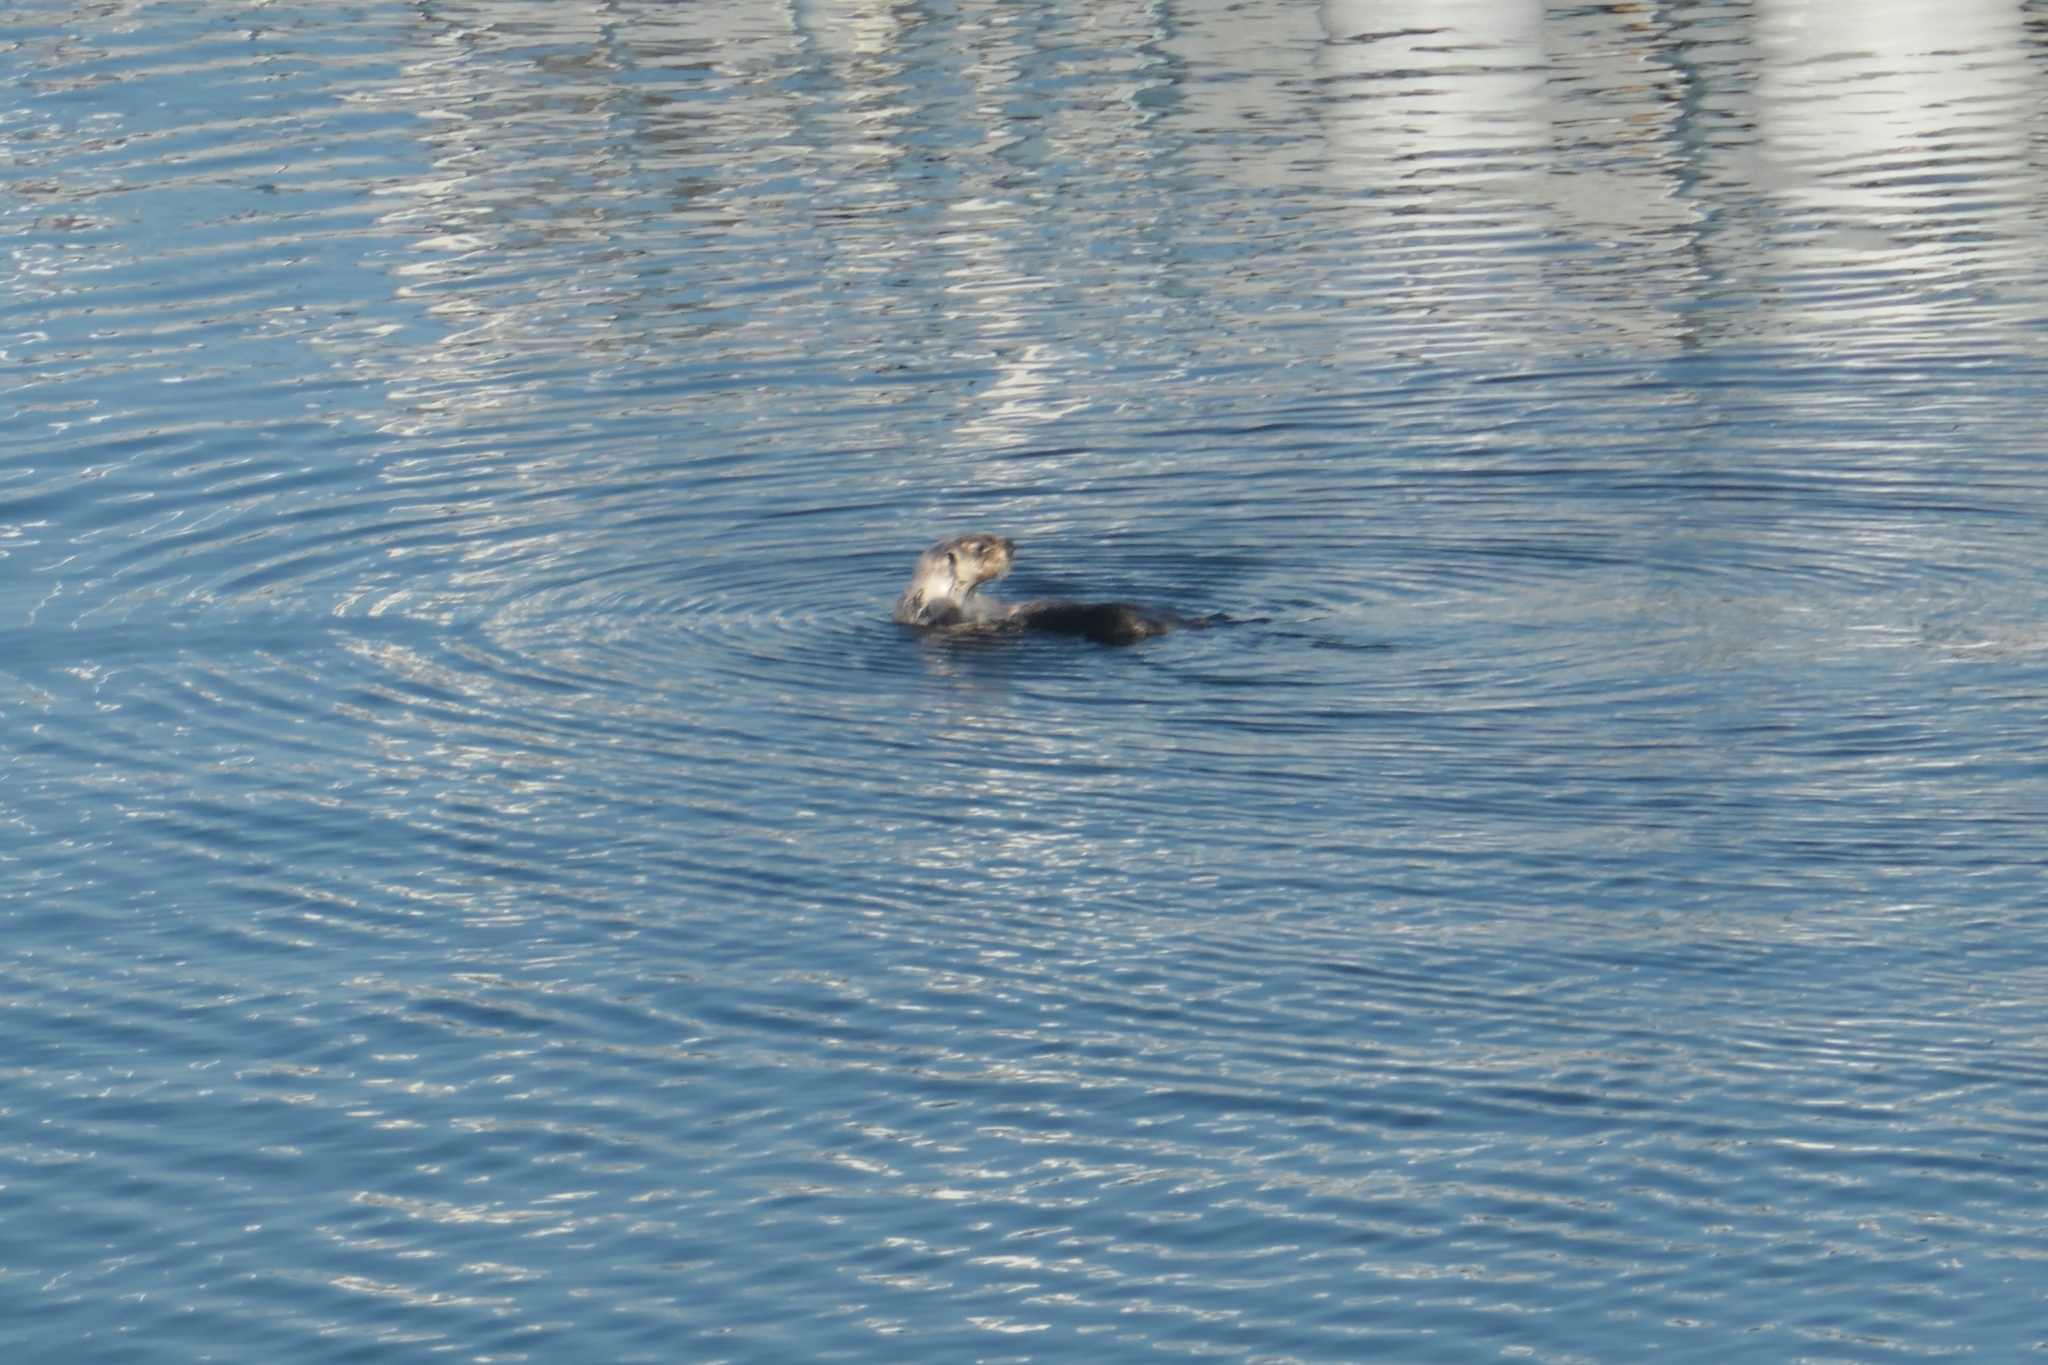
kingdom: Animalia
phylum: Chordata
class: Mammalia
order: Carnivora
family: Mustelidae
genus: Enhydra
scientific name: Enhydra lutris
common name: Sea otter
